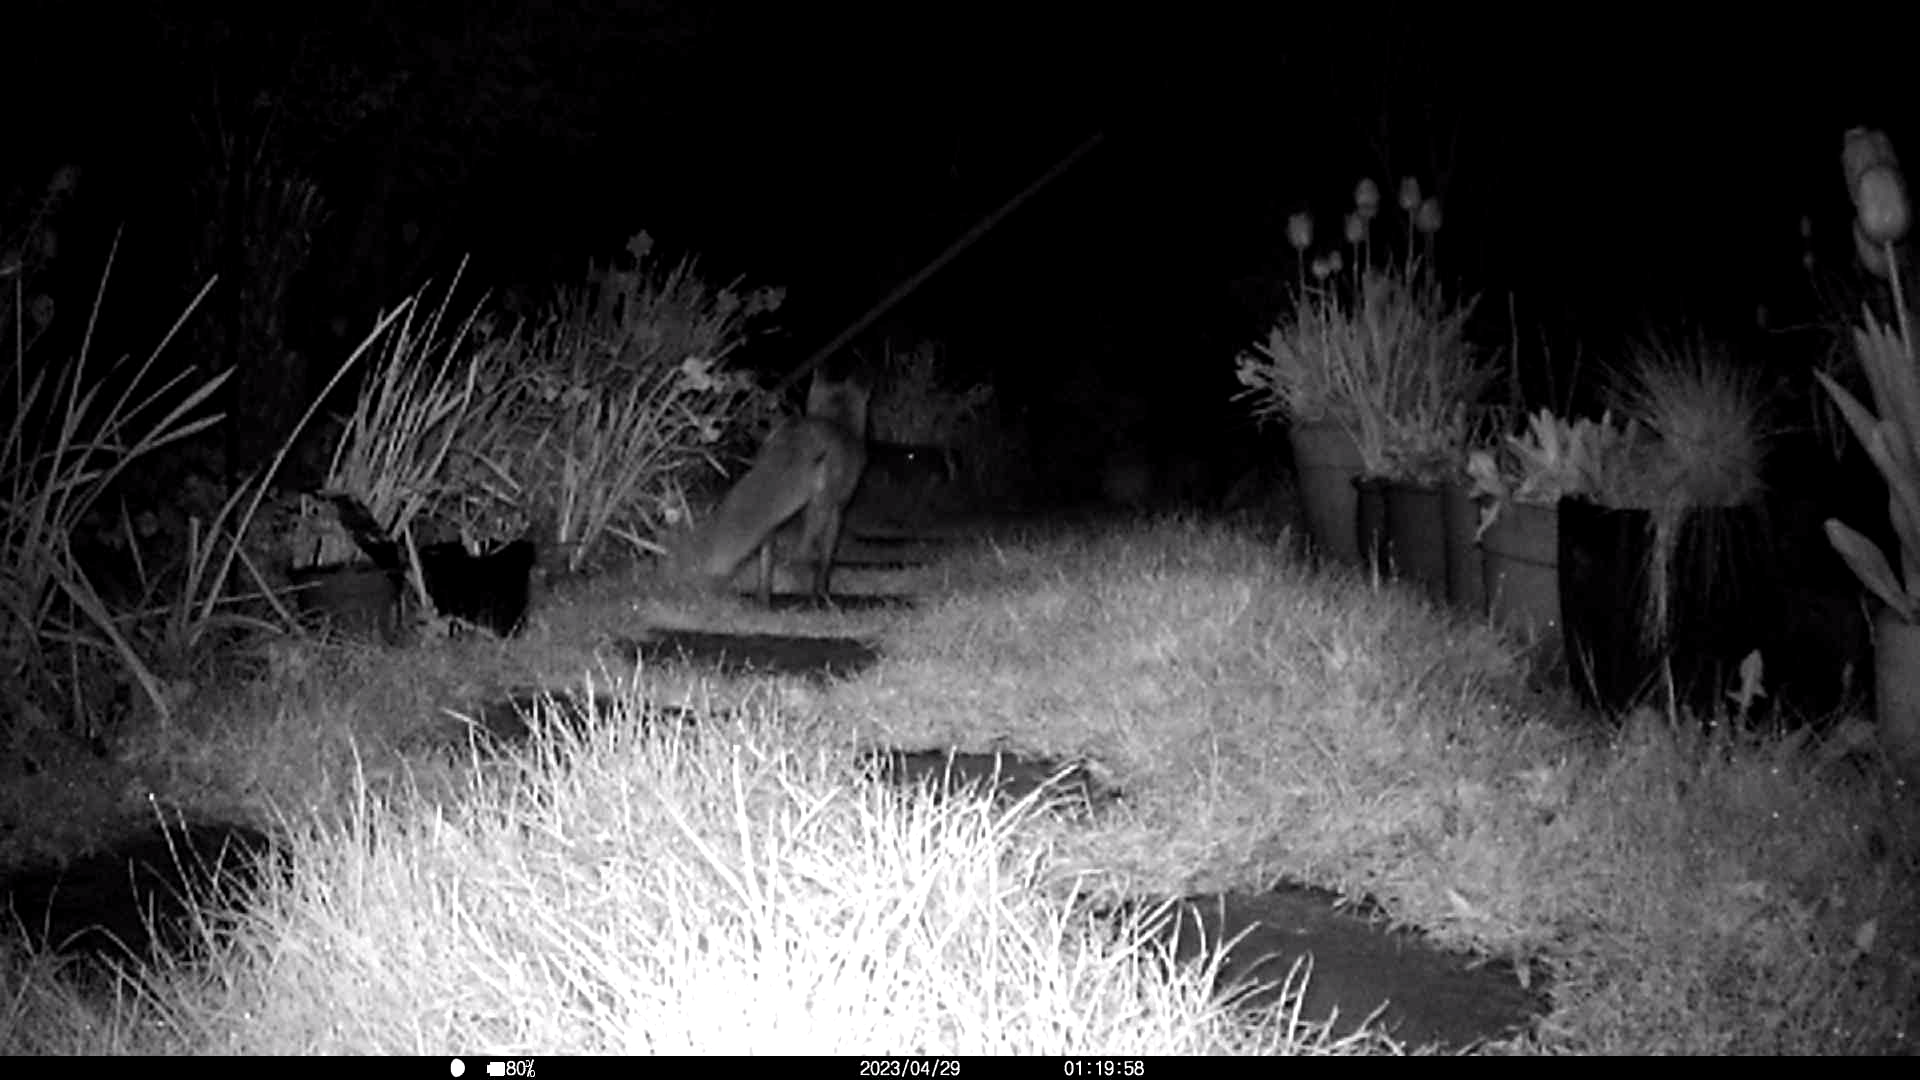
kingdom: Animalia
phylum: Chordata
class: Mammalia
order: Carnivora
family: Canidae
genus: Vulpes
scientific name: Vulpes vulpes
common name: Red fox
